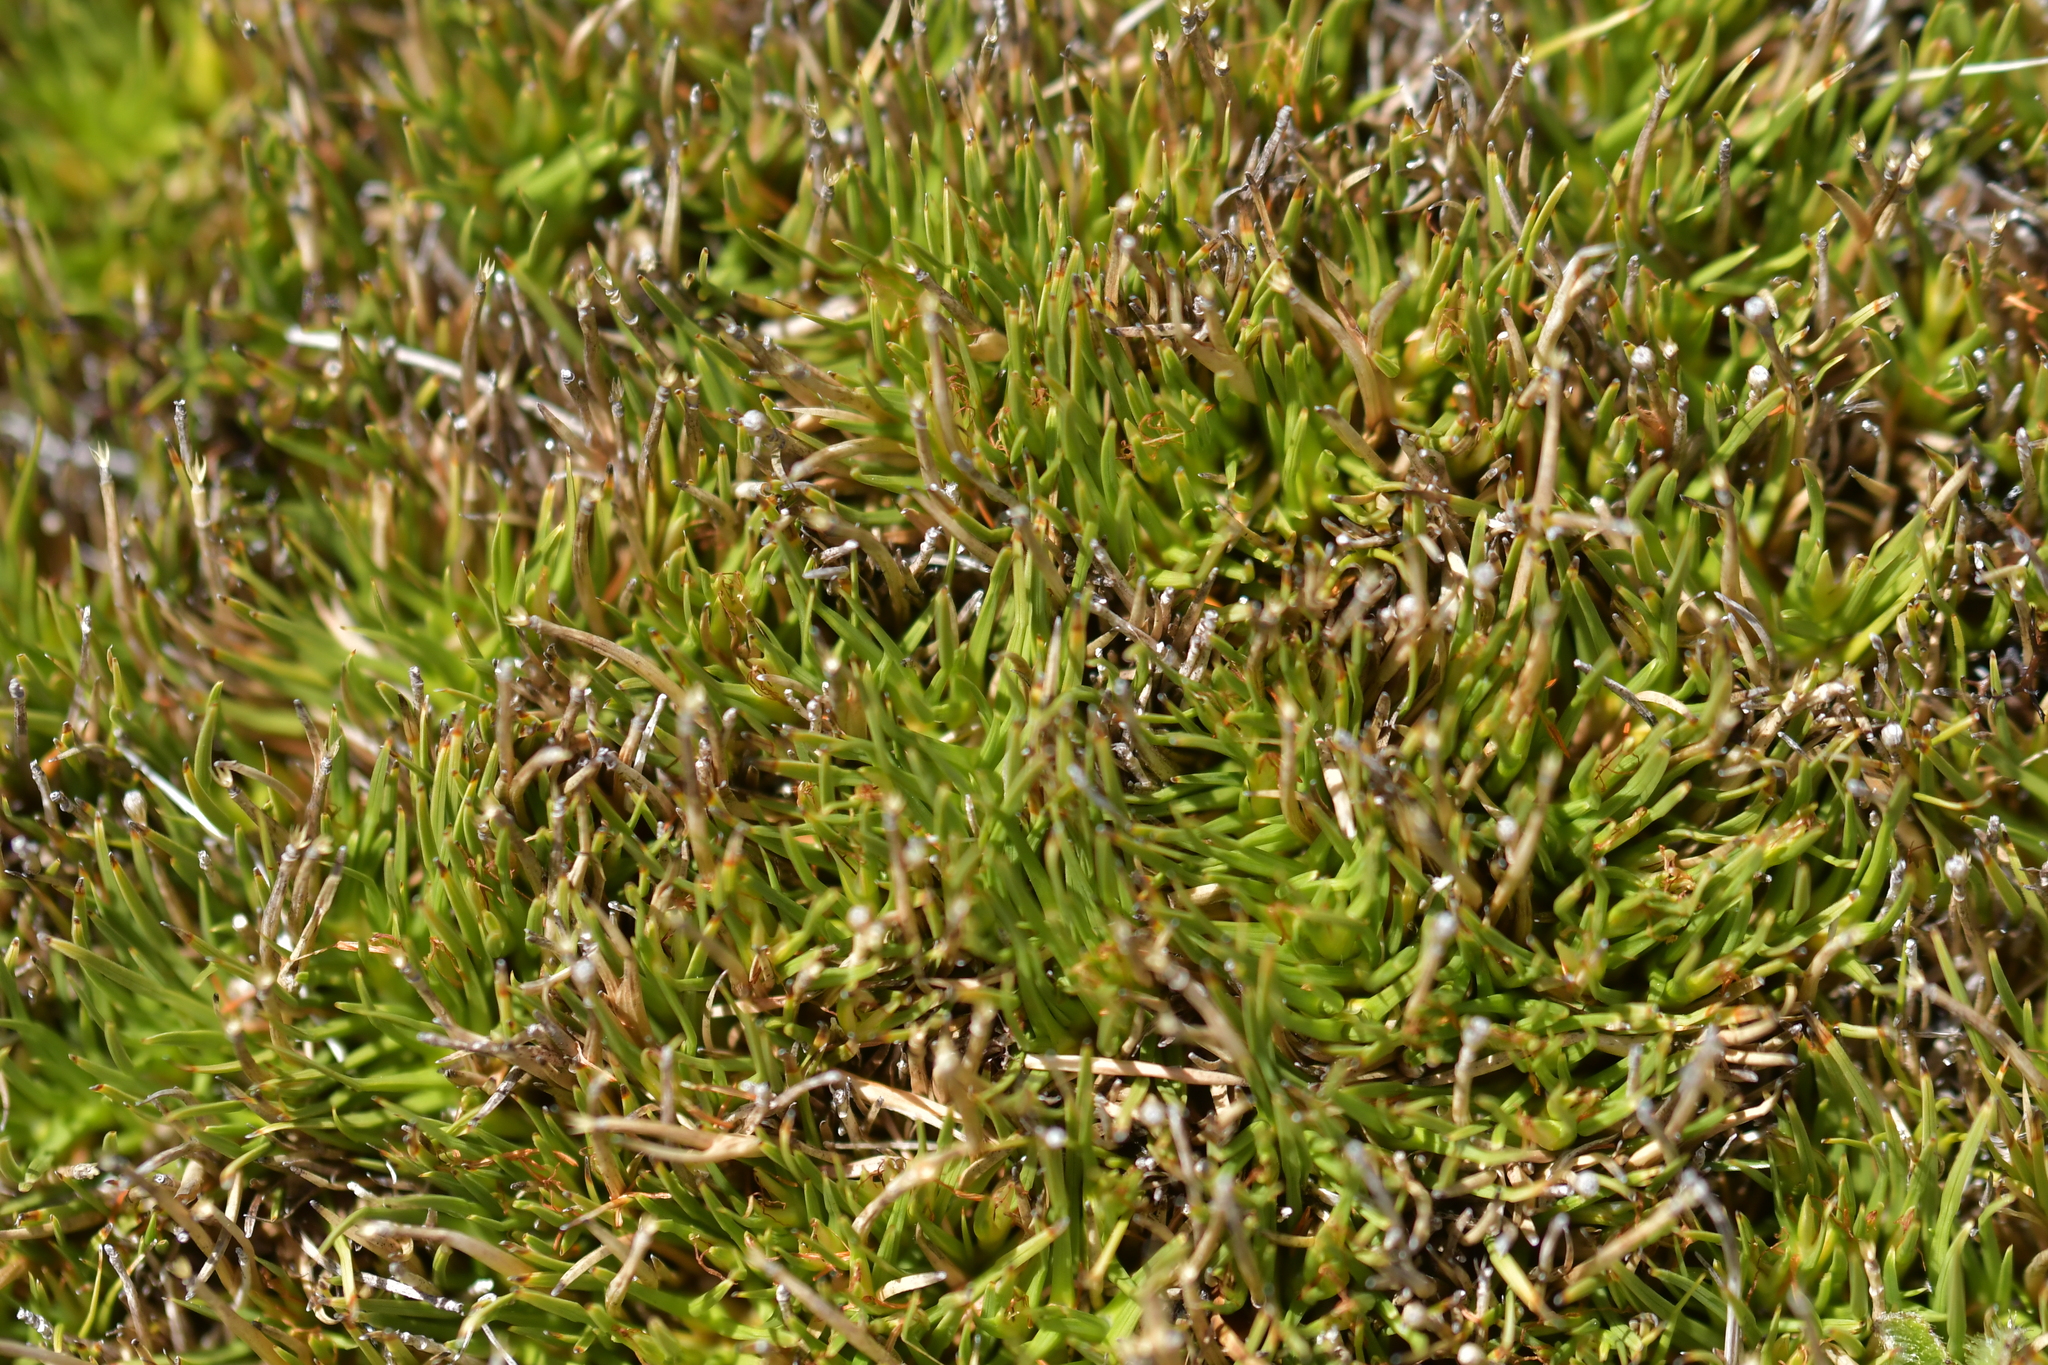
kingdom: Plantae
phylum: Tracheophyta
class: Liliopsida
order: Poales
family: Cyperaceae
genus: Oreobolus
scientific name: Oreobolus pectinatus
